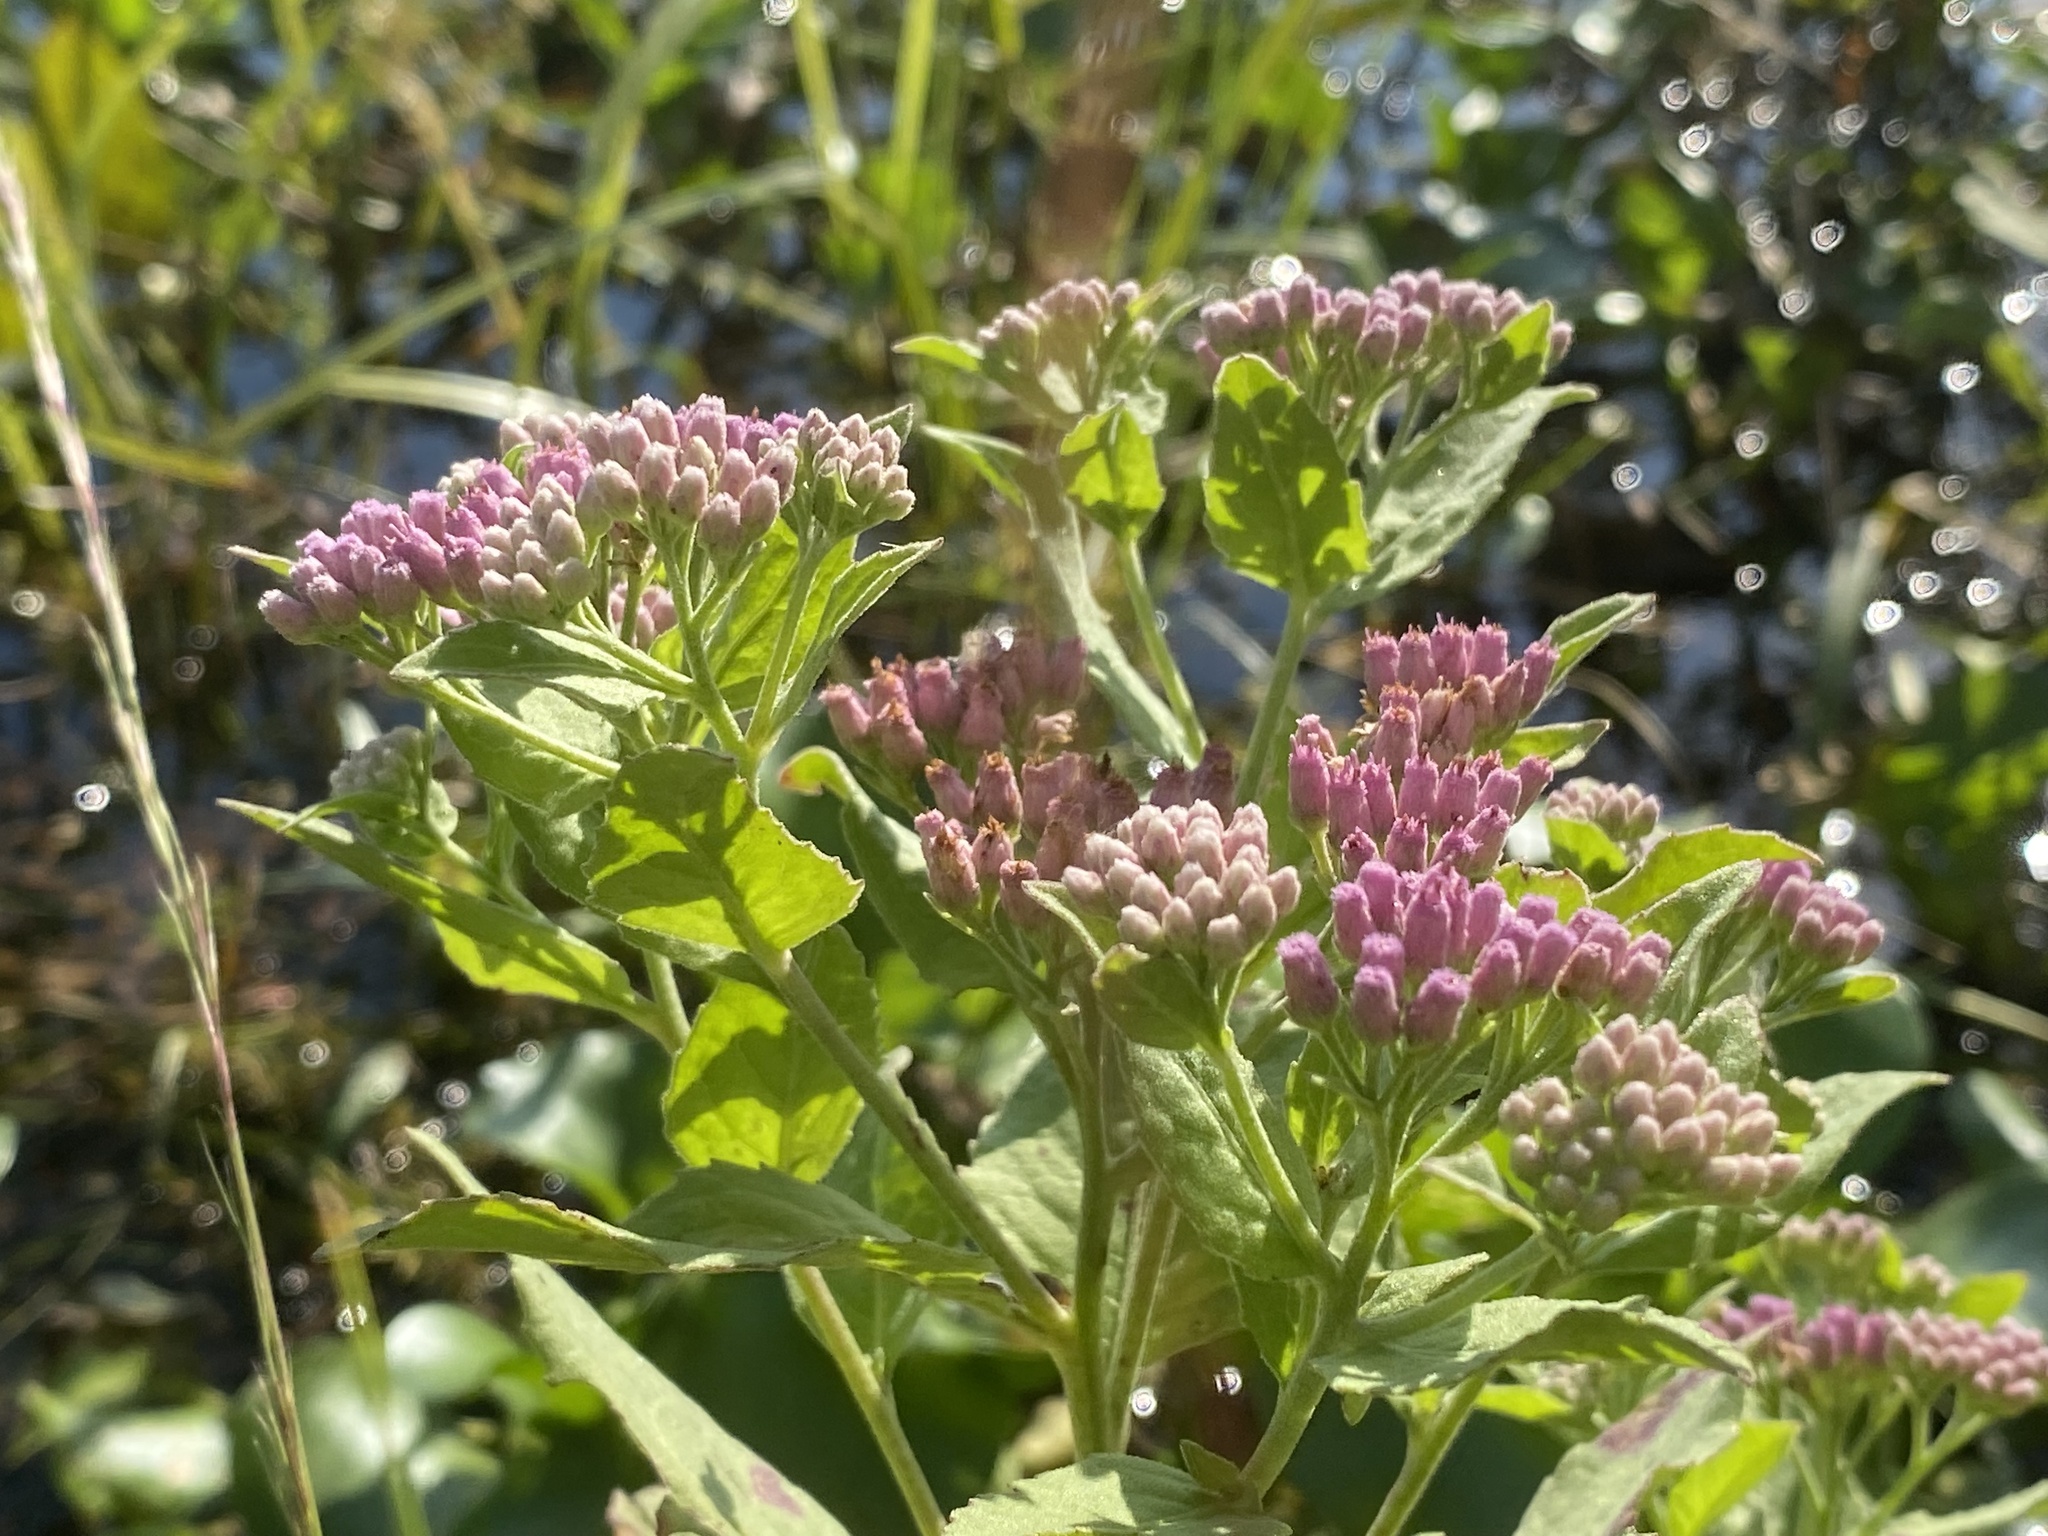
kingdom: Plantae
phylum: Tracheophyta
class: Magnoliopsida
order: Asterales
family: Asteraceae
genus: Pluchea
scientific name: Pluchea odorata
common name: Saltmarsh fleabane
